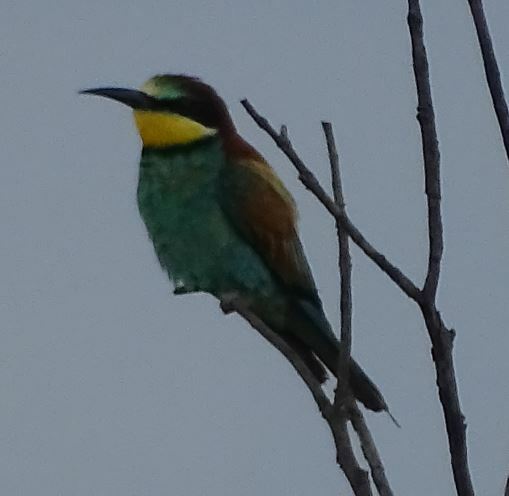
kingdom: Animalia
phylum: Chordata
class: Aves
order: Coraciiformes
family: Meropidae
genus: Merops
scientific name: Merops apiaster
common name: European bee-eater
